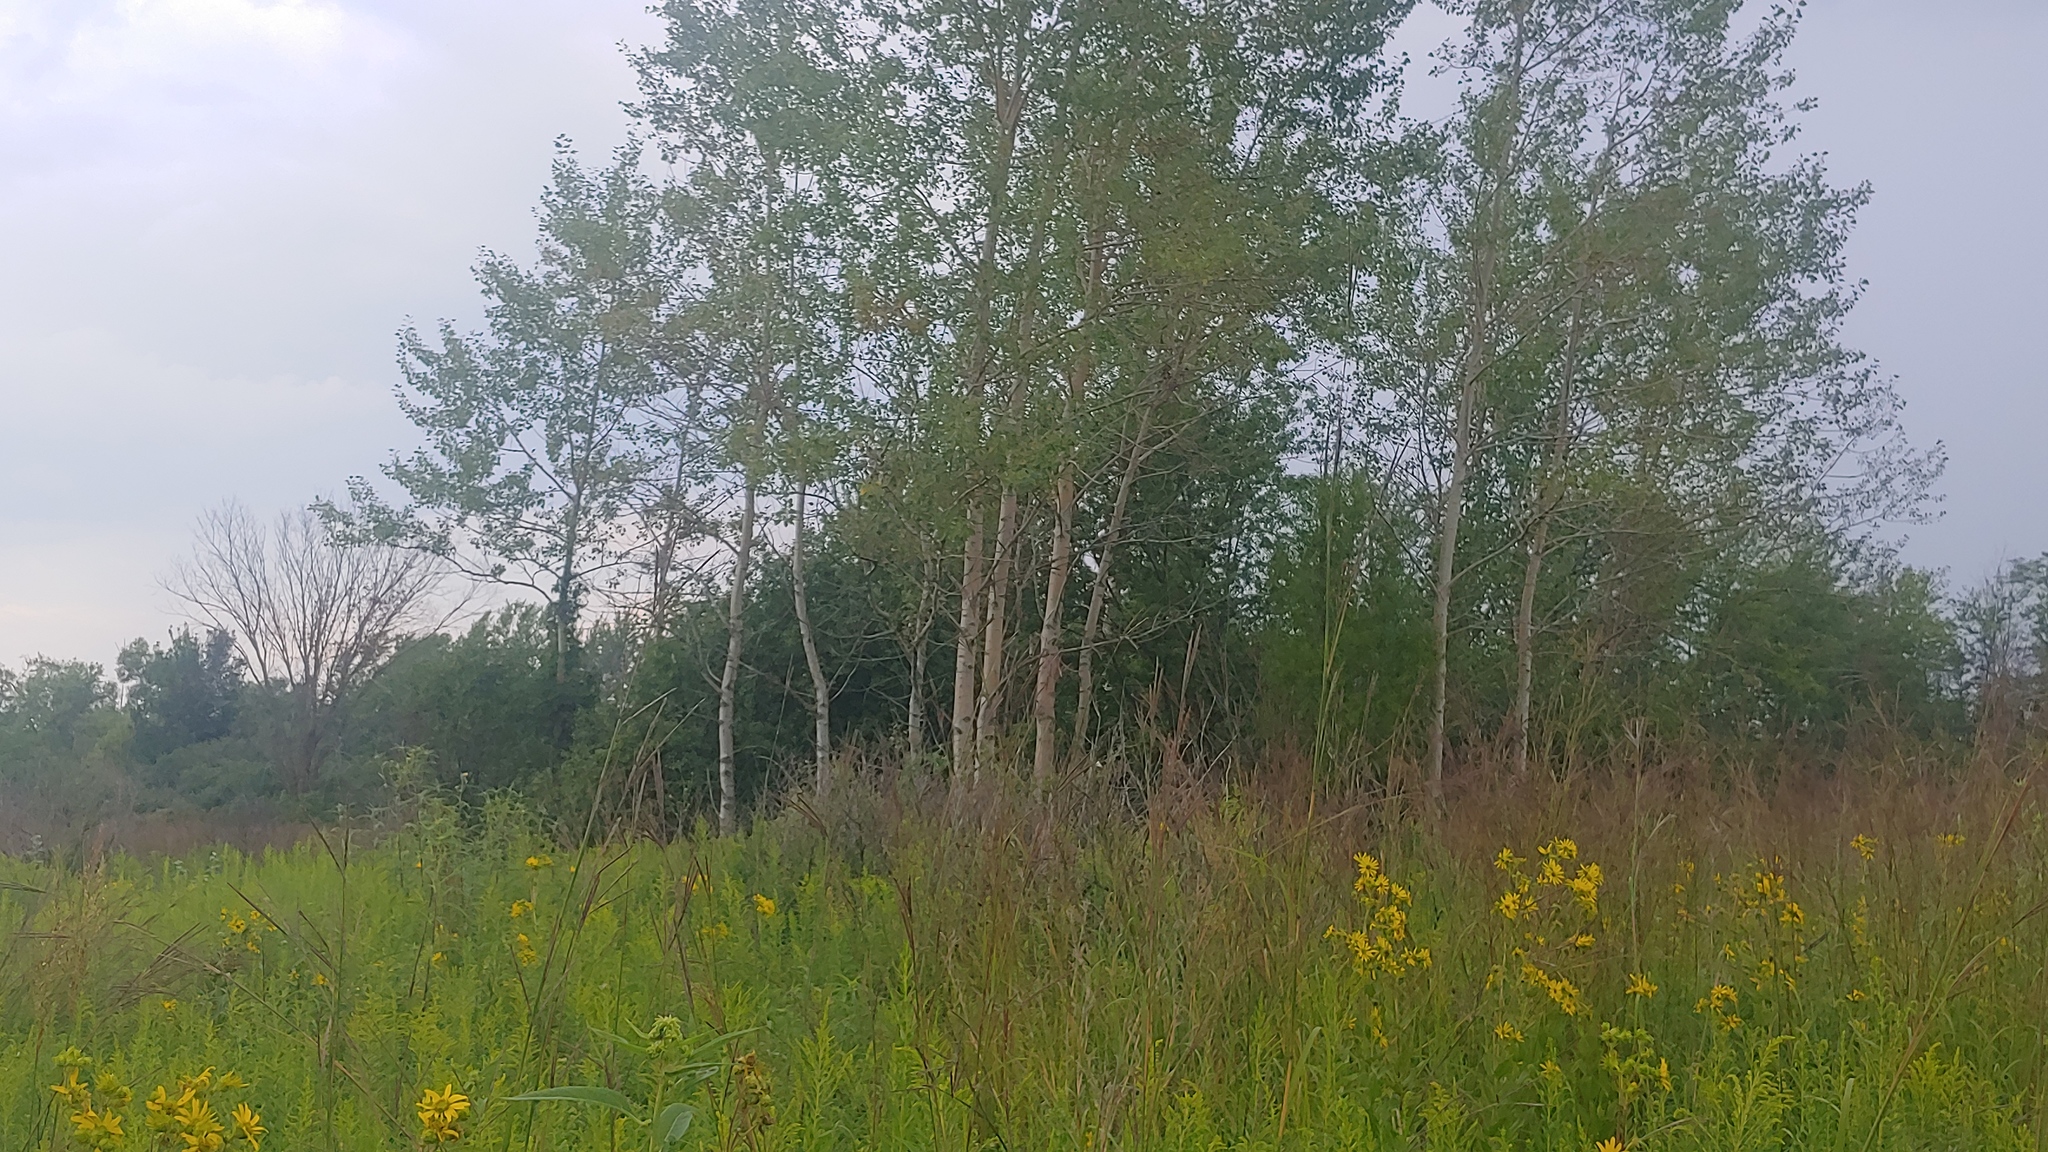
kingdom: Plantae
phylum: Tracheophyta
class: Magnoliopsida
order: Malpighiales
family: Salicaceae
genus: Populus
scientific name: Populus tremuloides
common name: Quaking aspen
